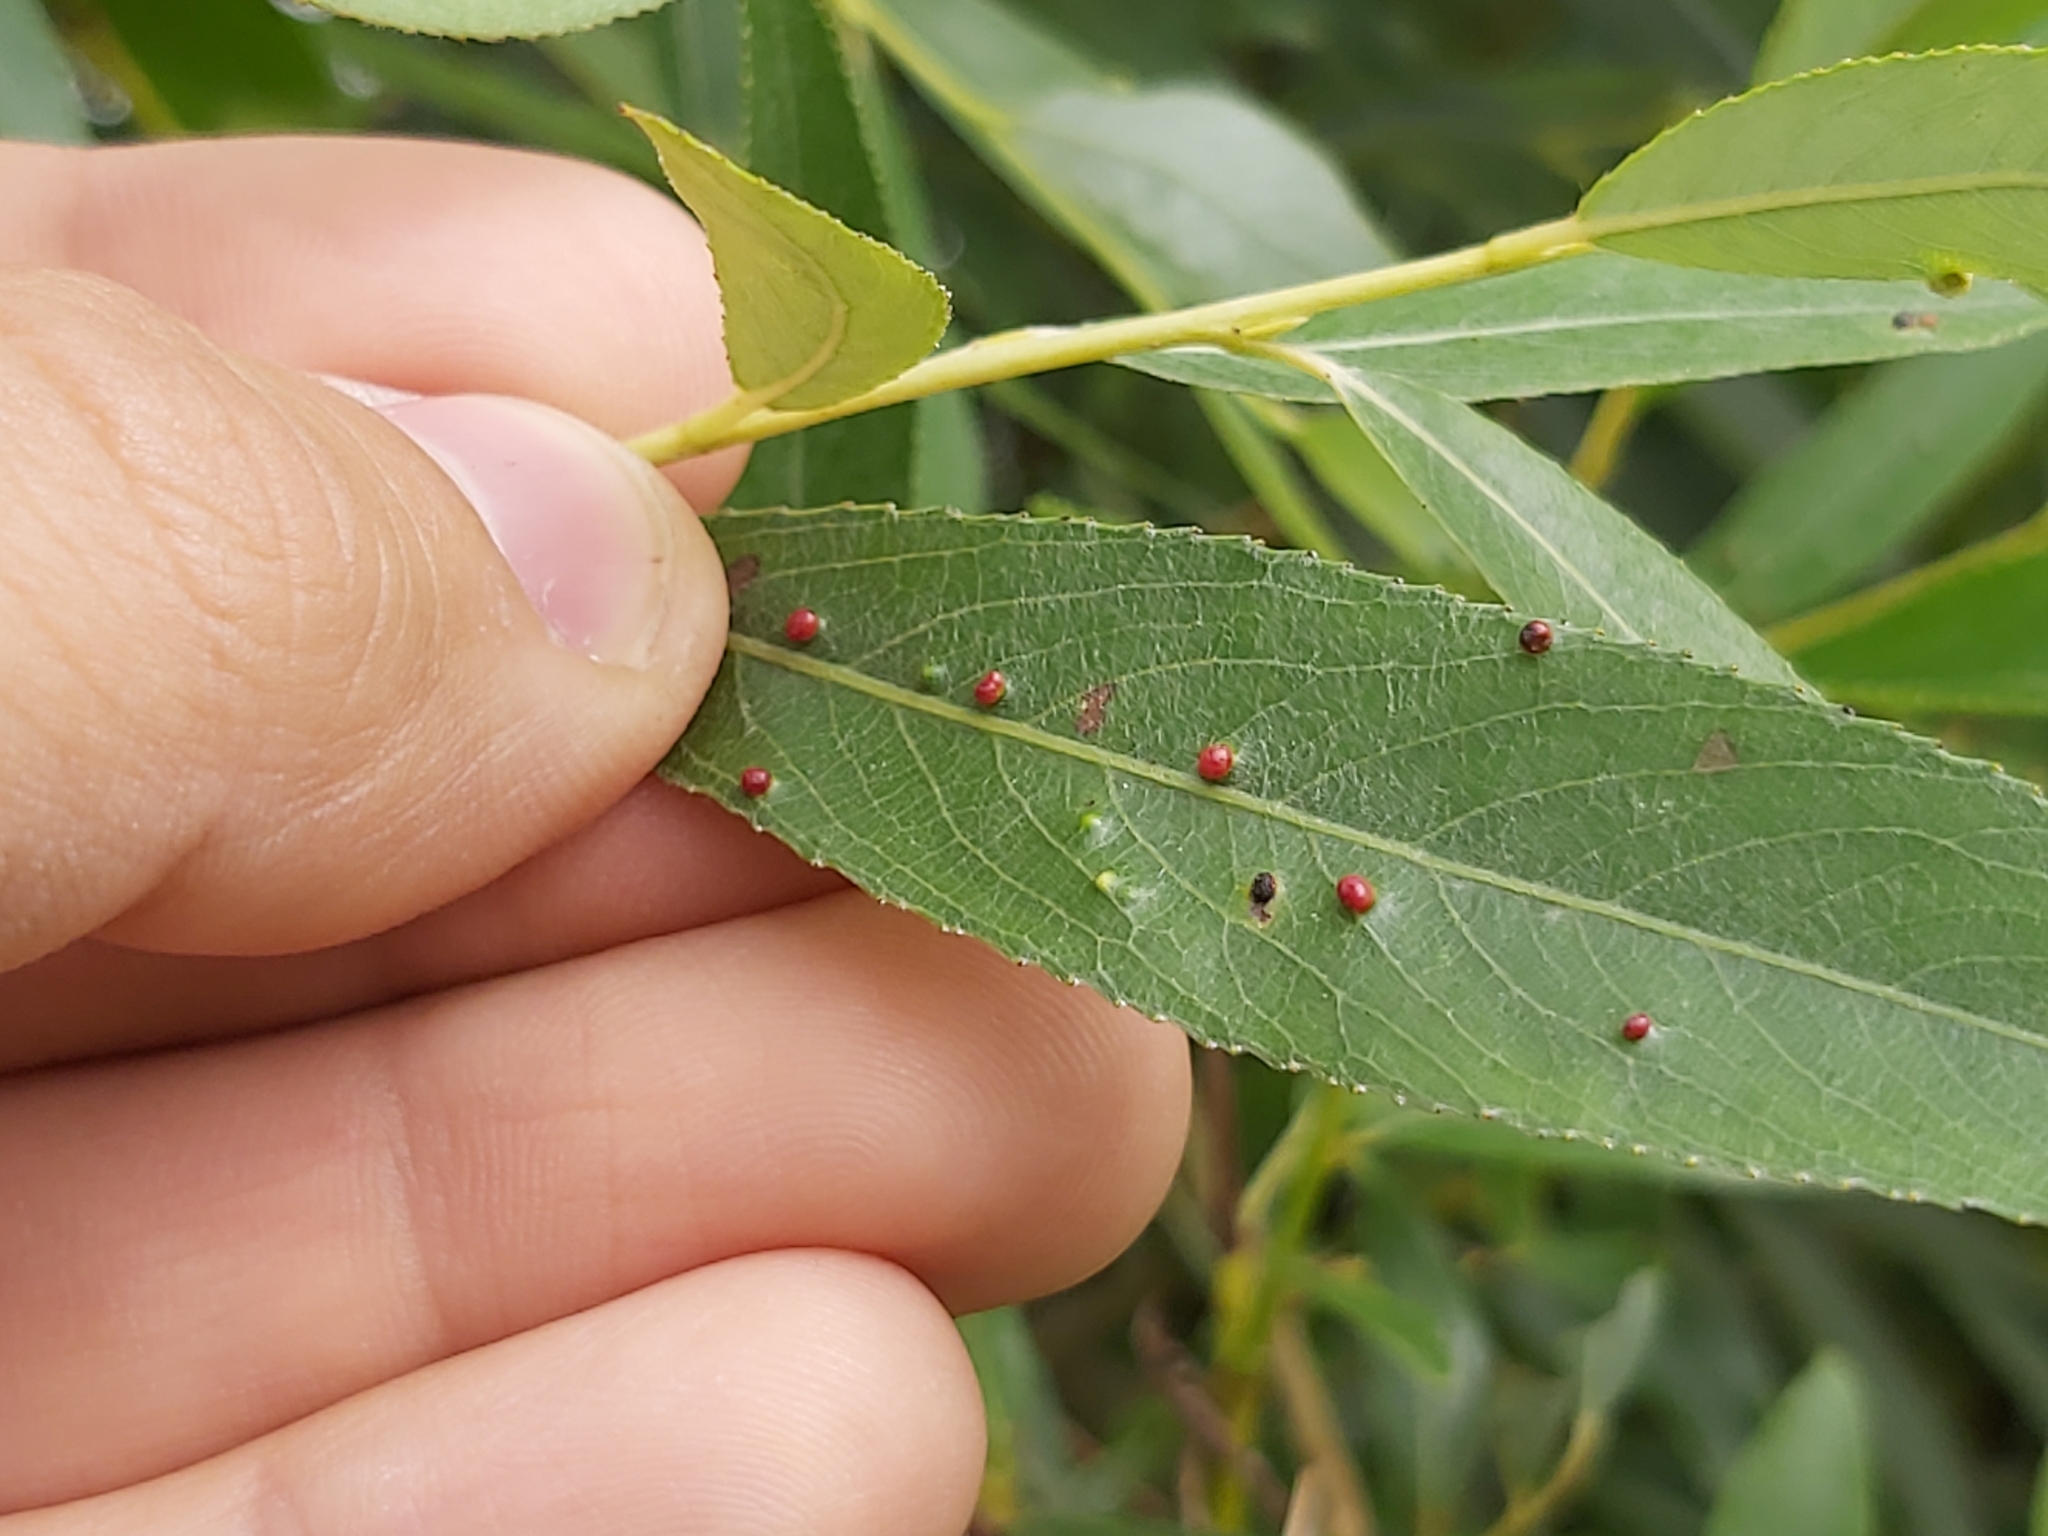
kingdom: Animalia
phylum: Arthropoda
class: Arachnida
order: Trombidiformes
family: Eriophyidae
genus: Aculus
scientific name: Aculus tetanothrix
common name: Willow bead gall mite
